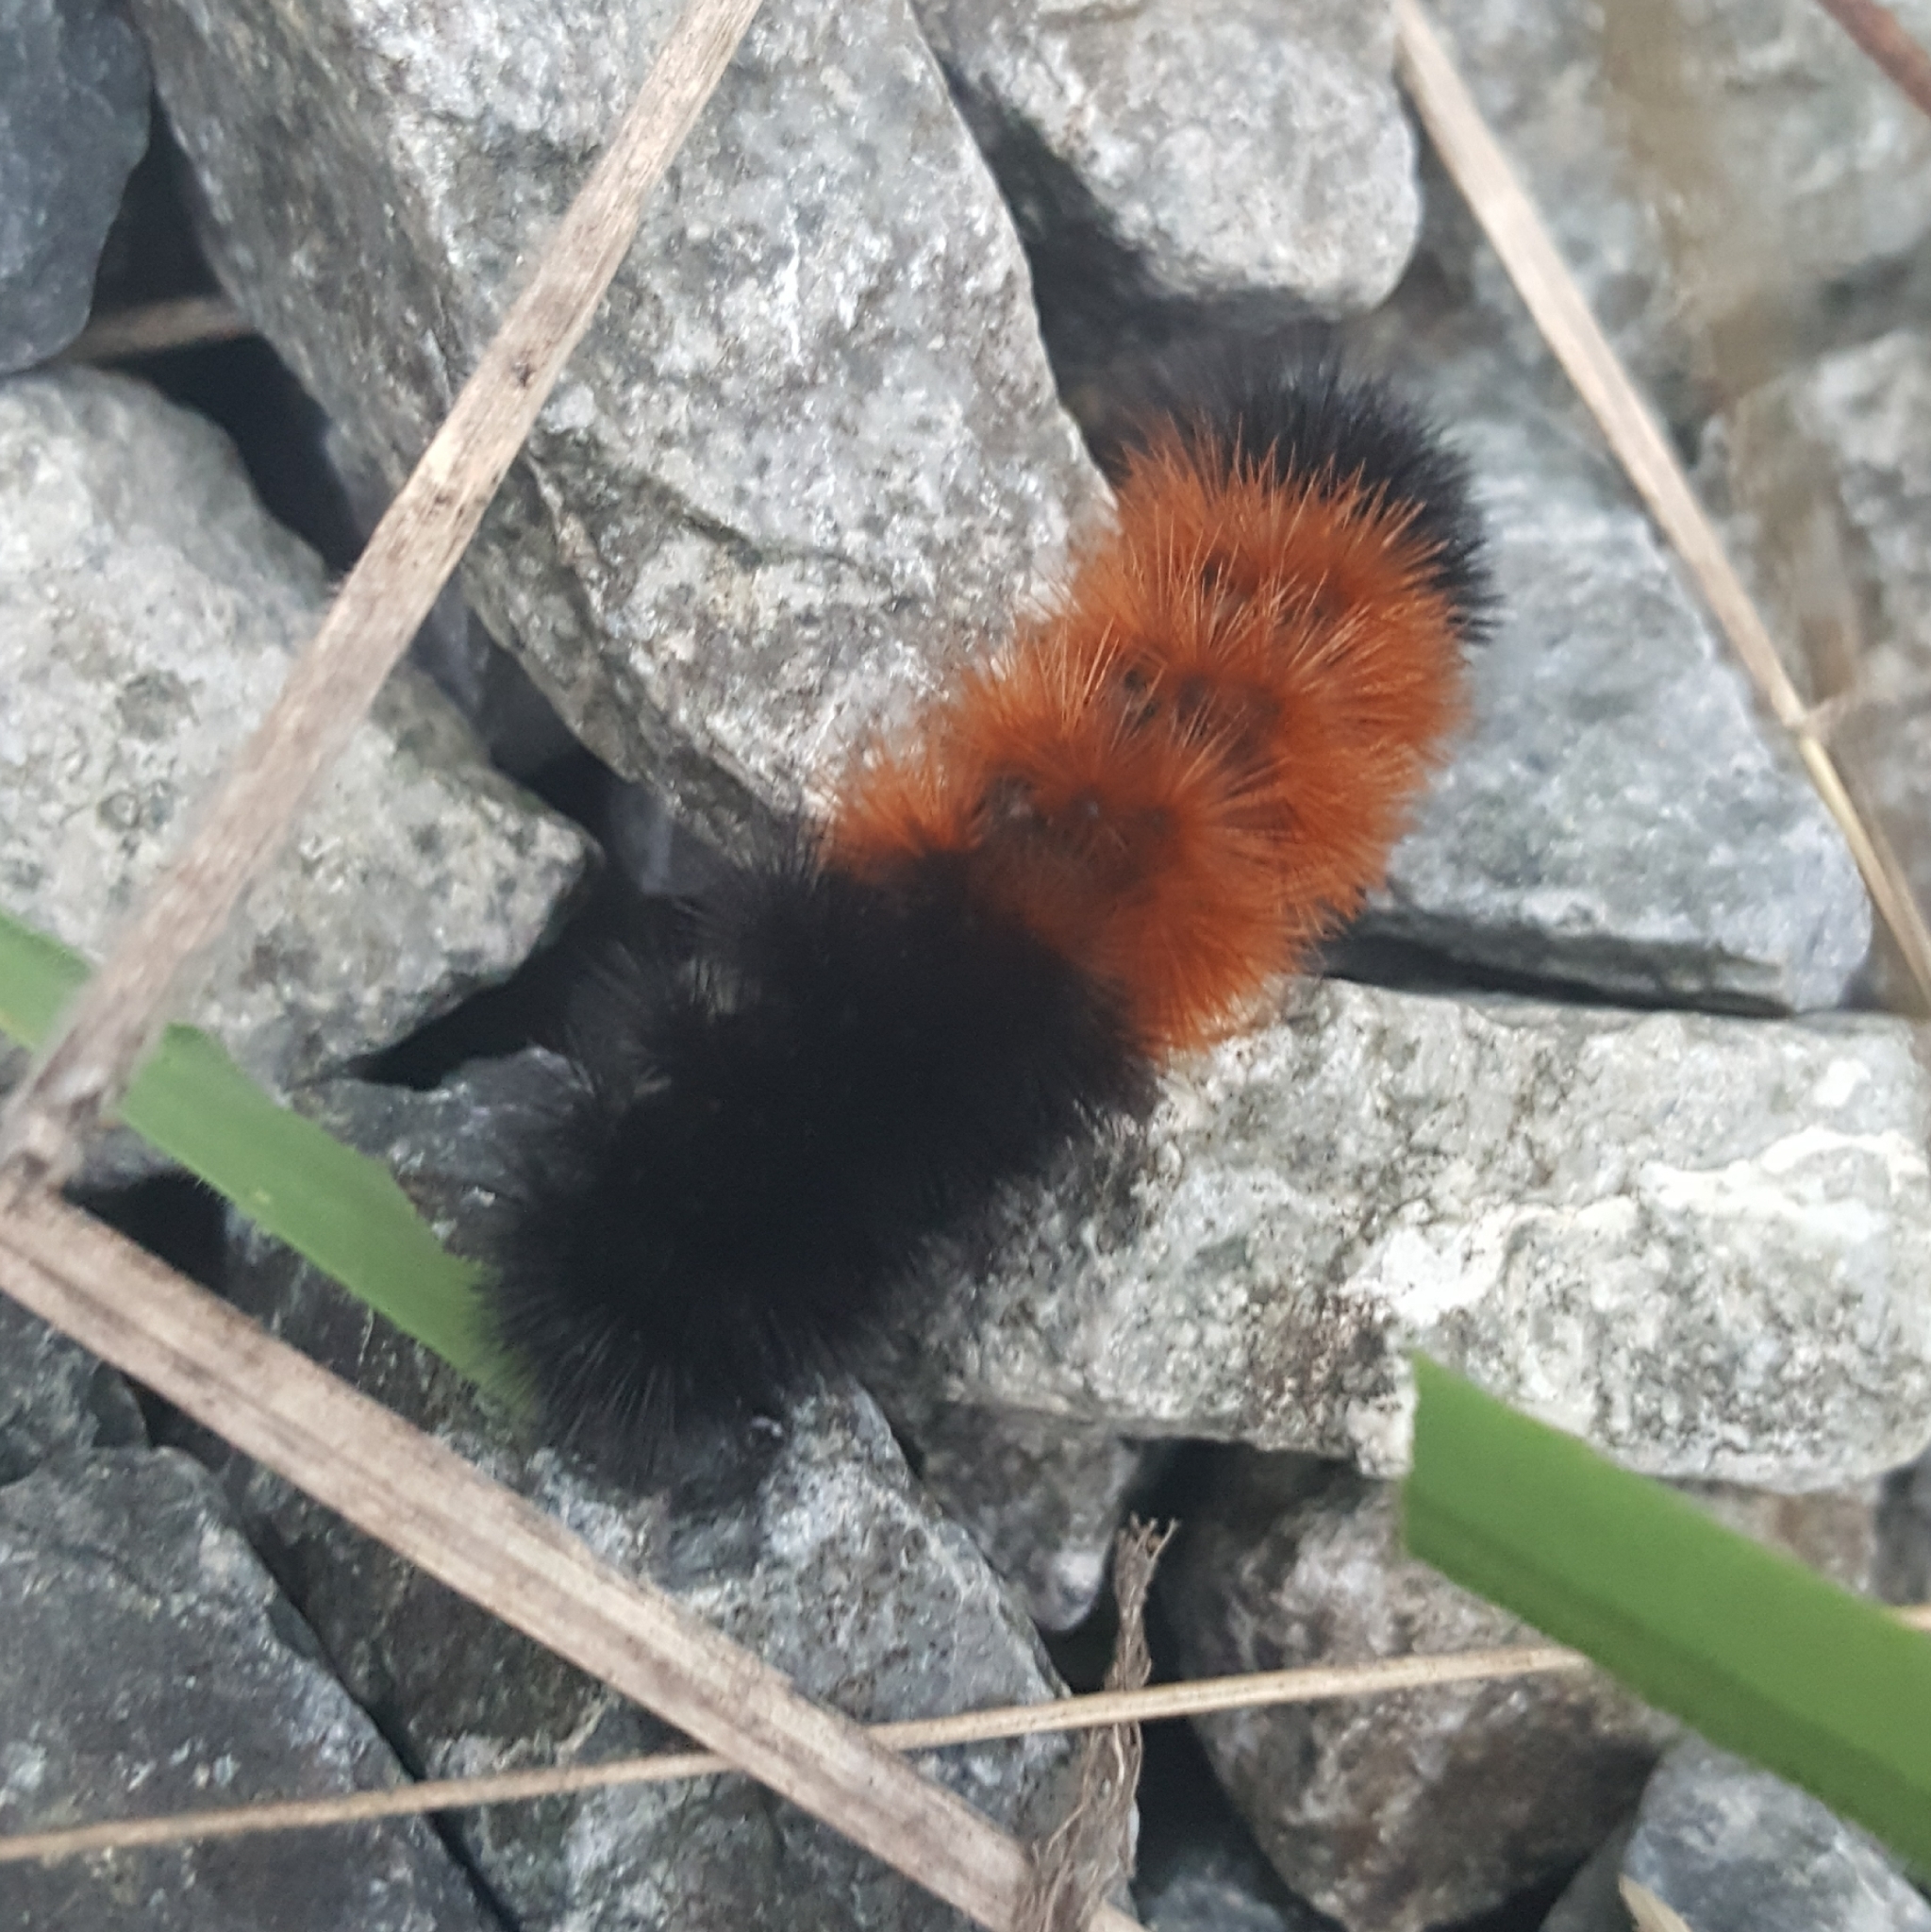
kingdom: Animalia
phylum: Arthropoda
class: Insecta
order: Lepidoptera
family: Erebidae
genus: Pyrrharctia
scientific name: Pyrrharctia isabella
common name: Isabella tiger moth
